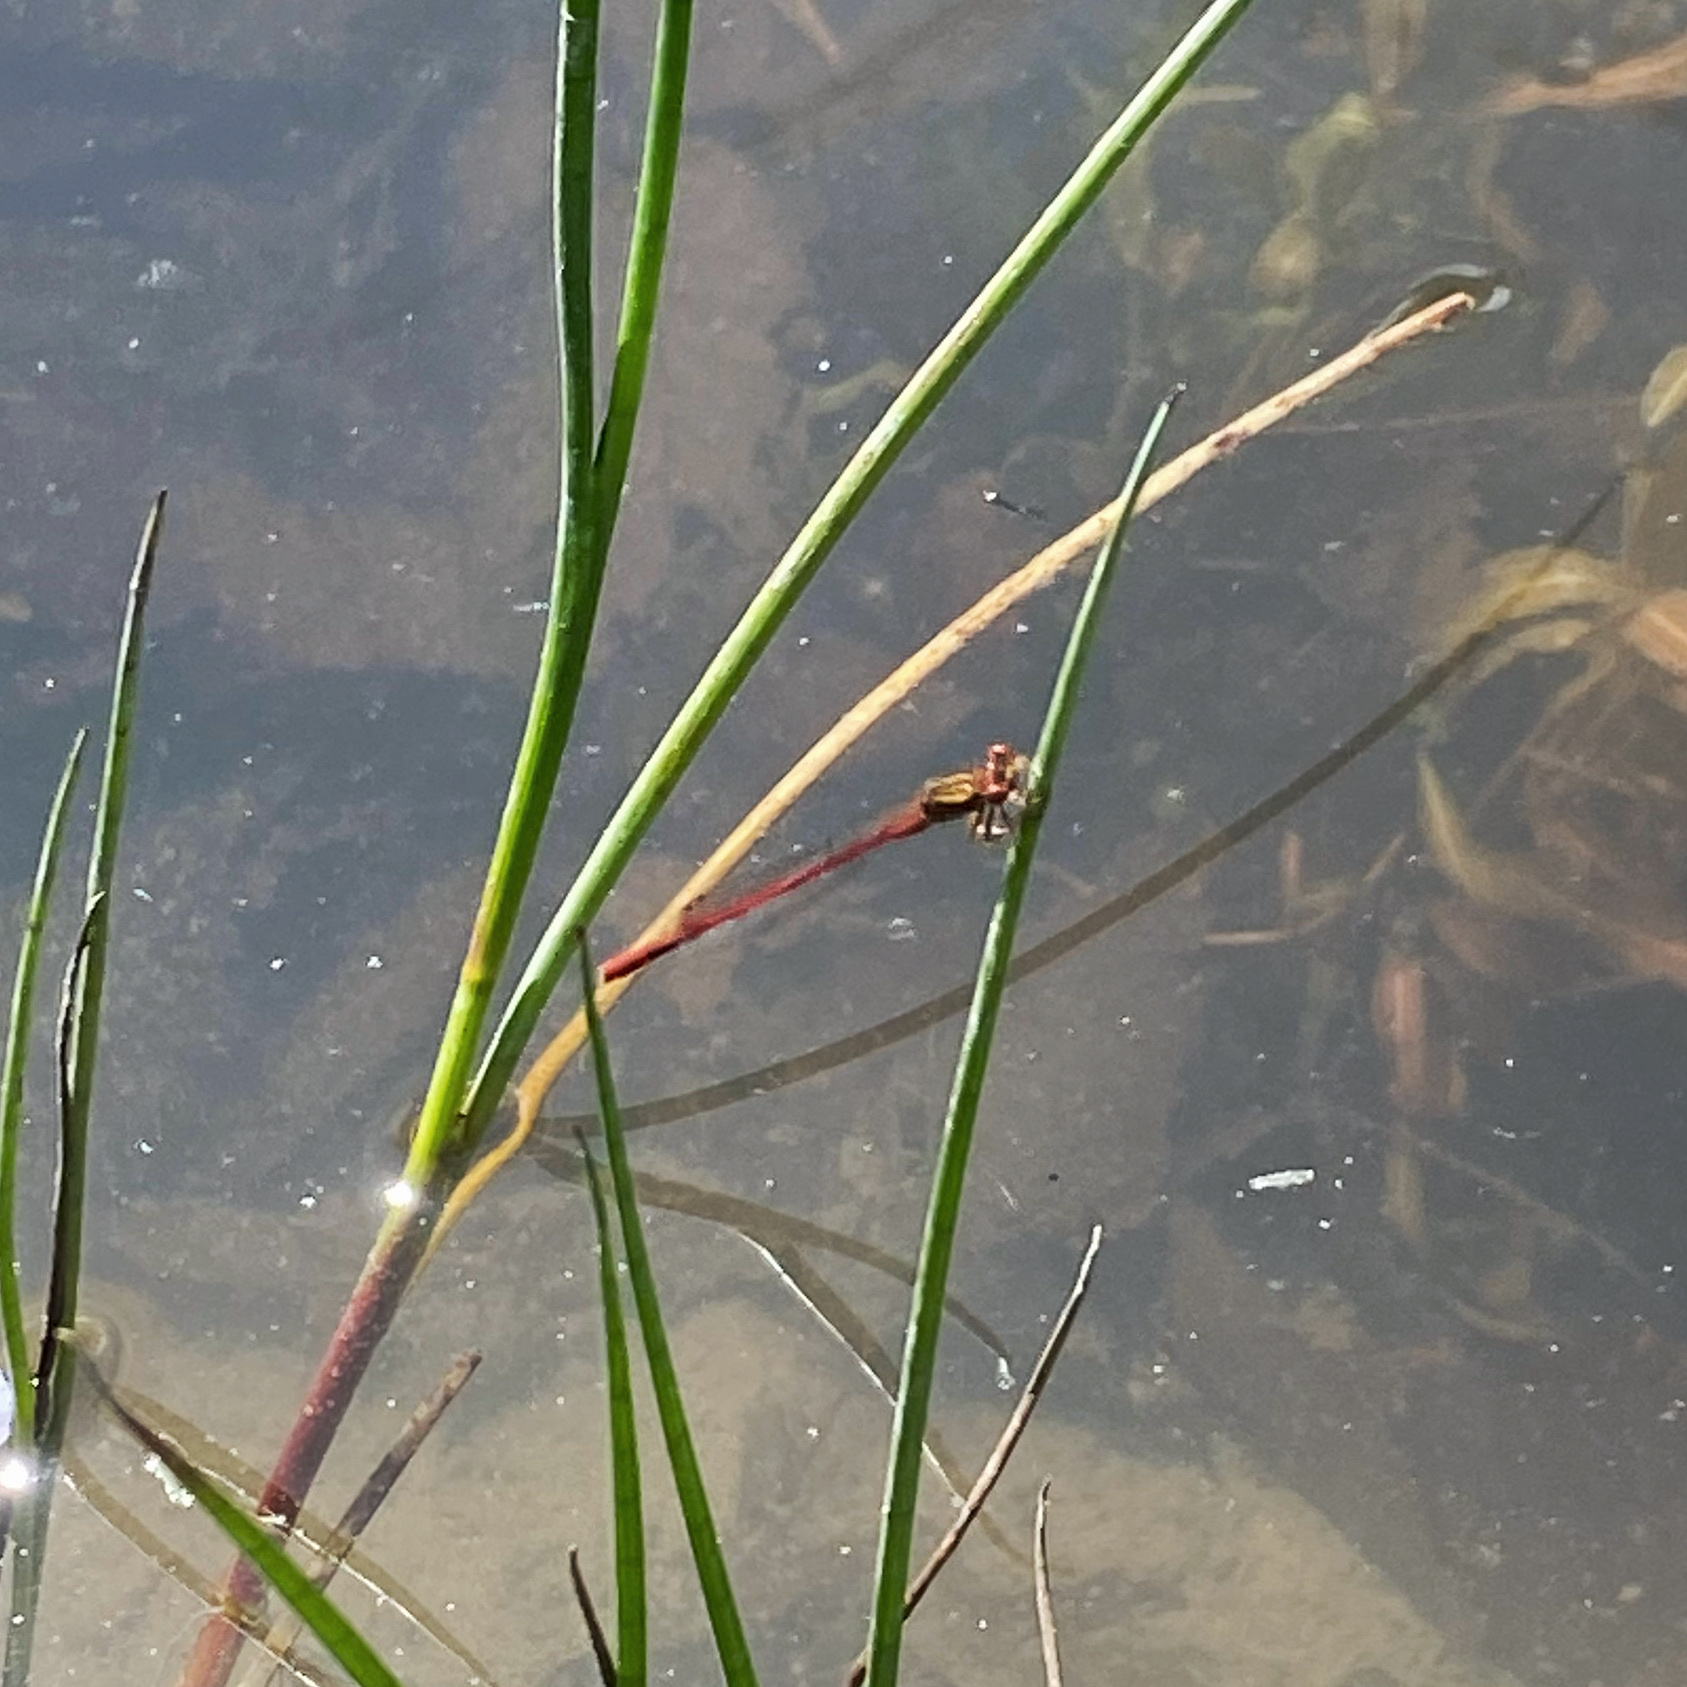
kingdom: Animalia
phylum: Arthropoda
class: Insecta
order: Odonata
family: Coenagrionidae
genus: Xanthocnemis
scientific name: Xanthocnemis zealandica
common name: Common redcoat damselfly
